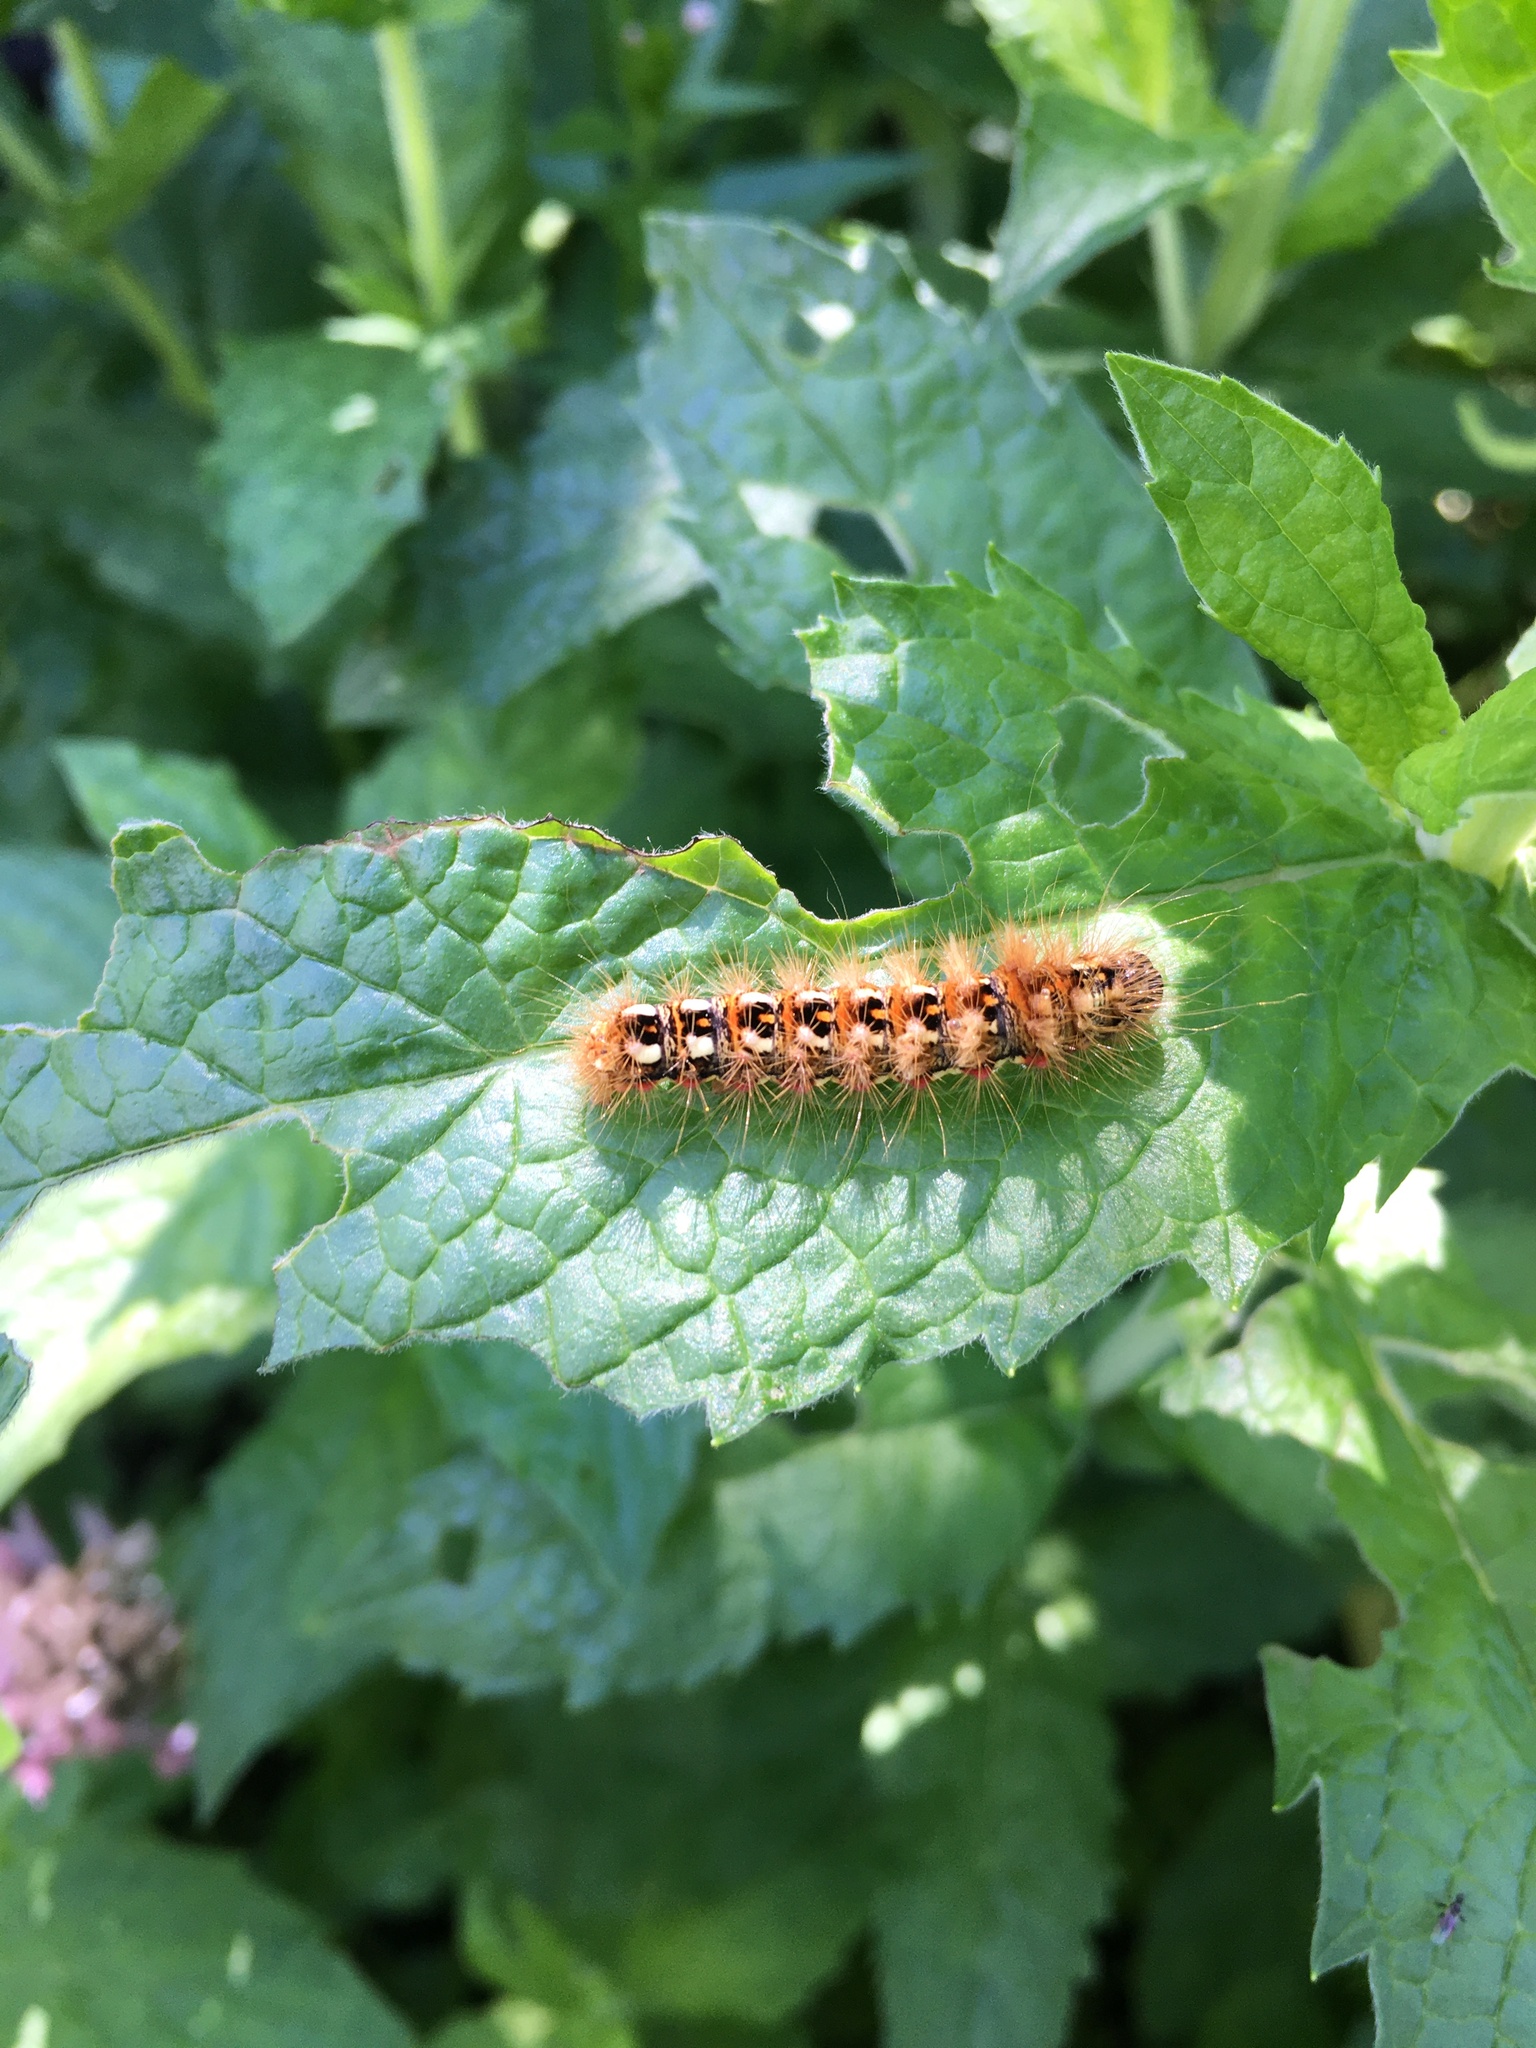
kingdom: Animalia
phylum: Arthropoda
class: Insecta
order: Lepidoptera
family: Noctuidae
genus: Acronicta
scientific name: Acronicta rumicis
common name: Knot grass
